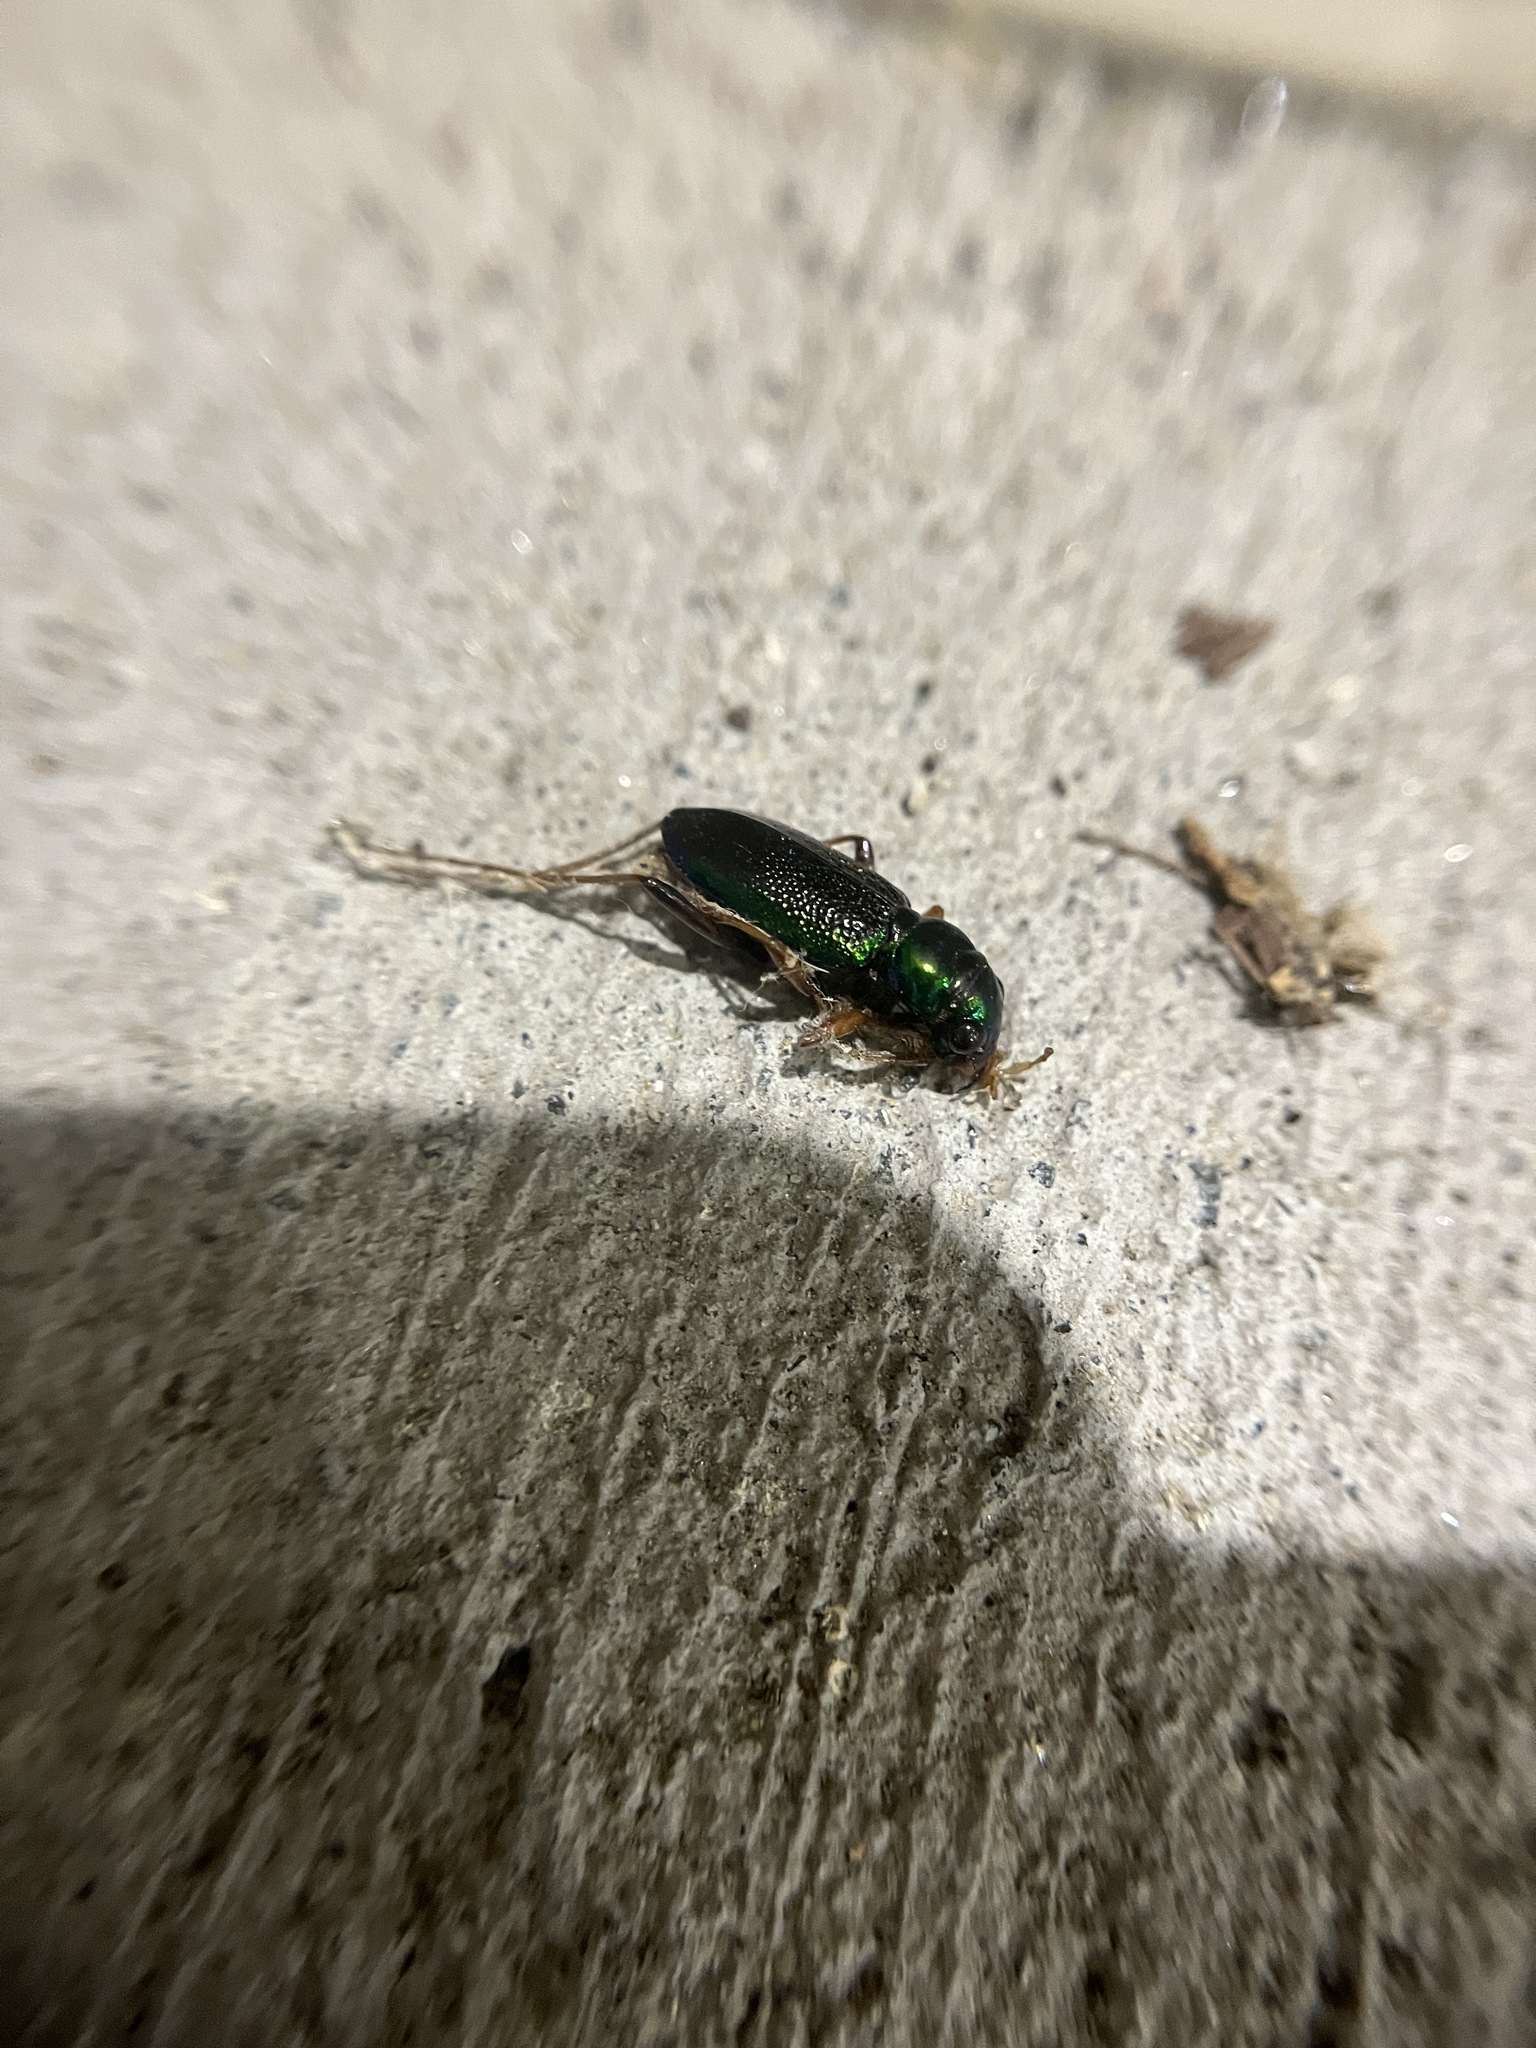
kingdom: Animalia
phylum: Arthropoda
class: Insecta
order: Coleoptera
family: Carabidae
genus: Tetracha
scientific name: Tetracha virginica
